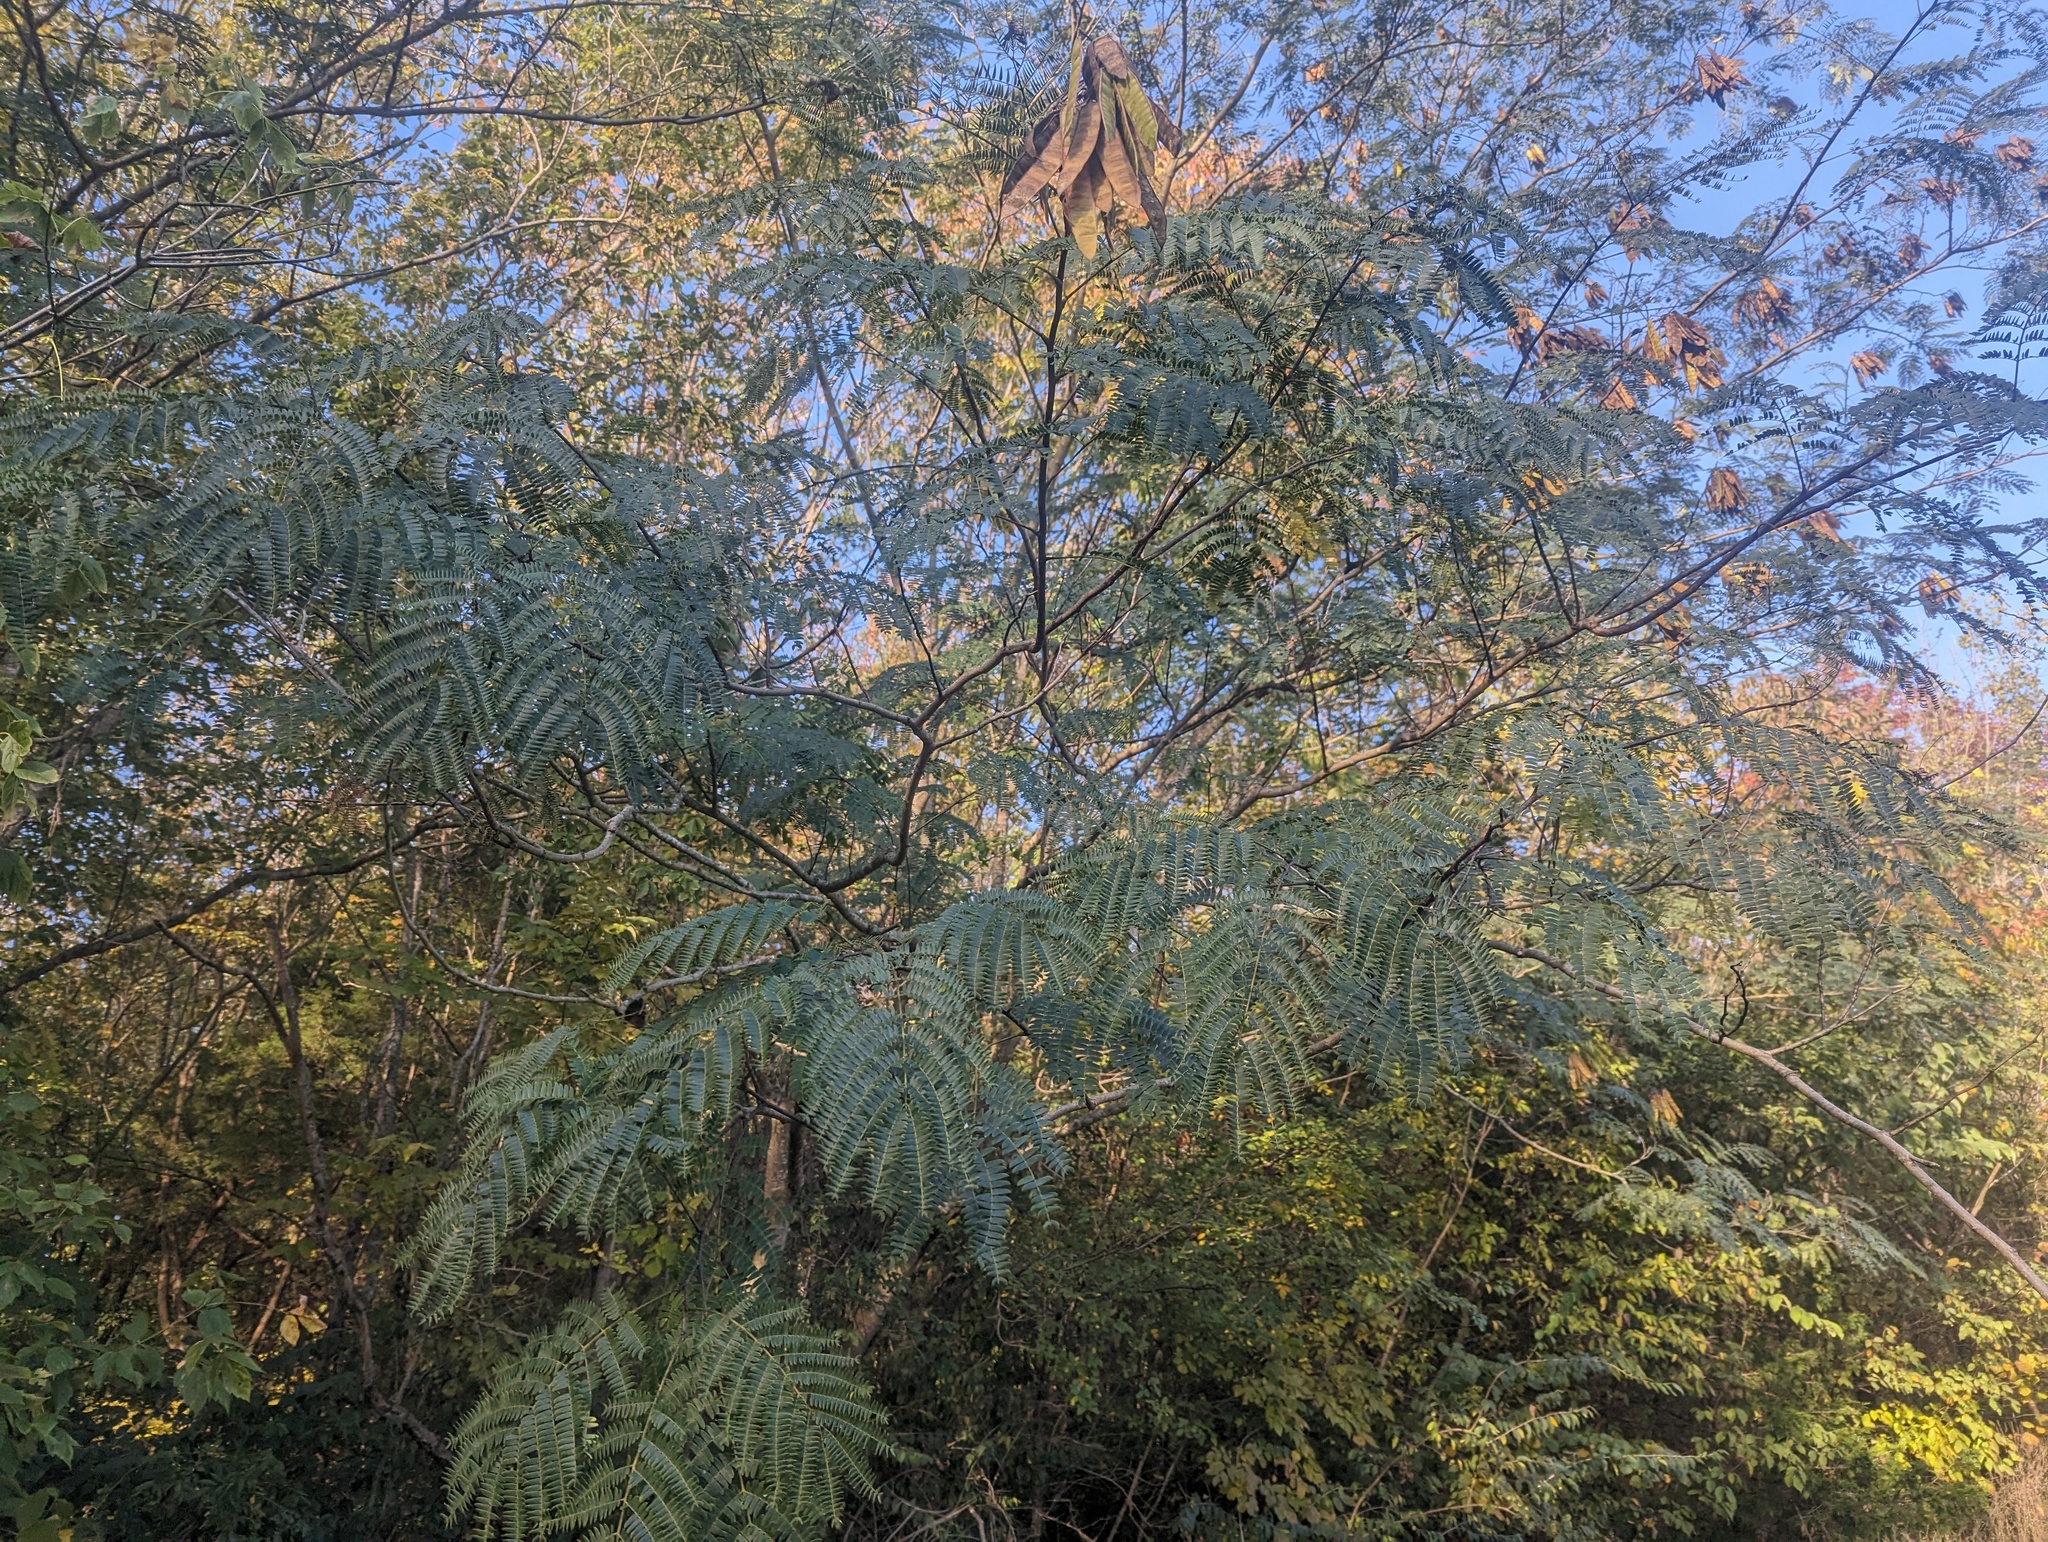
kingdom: Plantae
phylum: Tracheophyta
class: Magnoliopsida
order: Fabales
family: Fabaceae
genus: Albizia
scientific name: Albizia julibrissin
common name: Silktree
